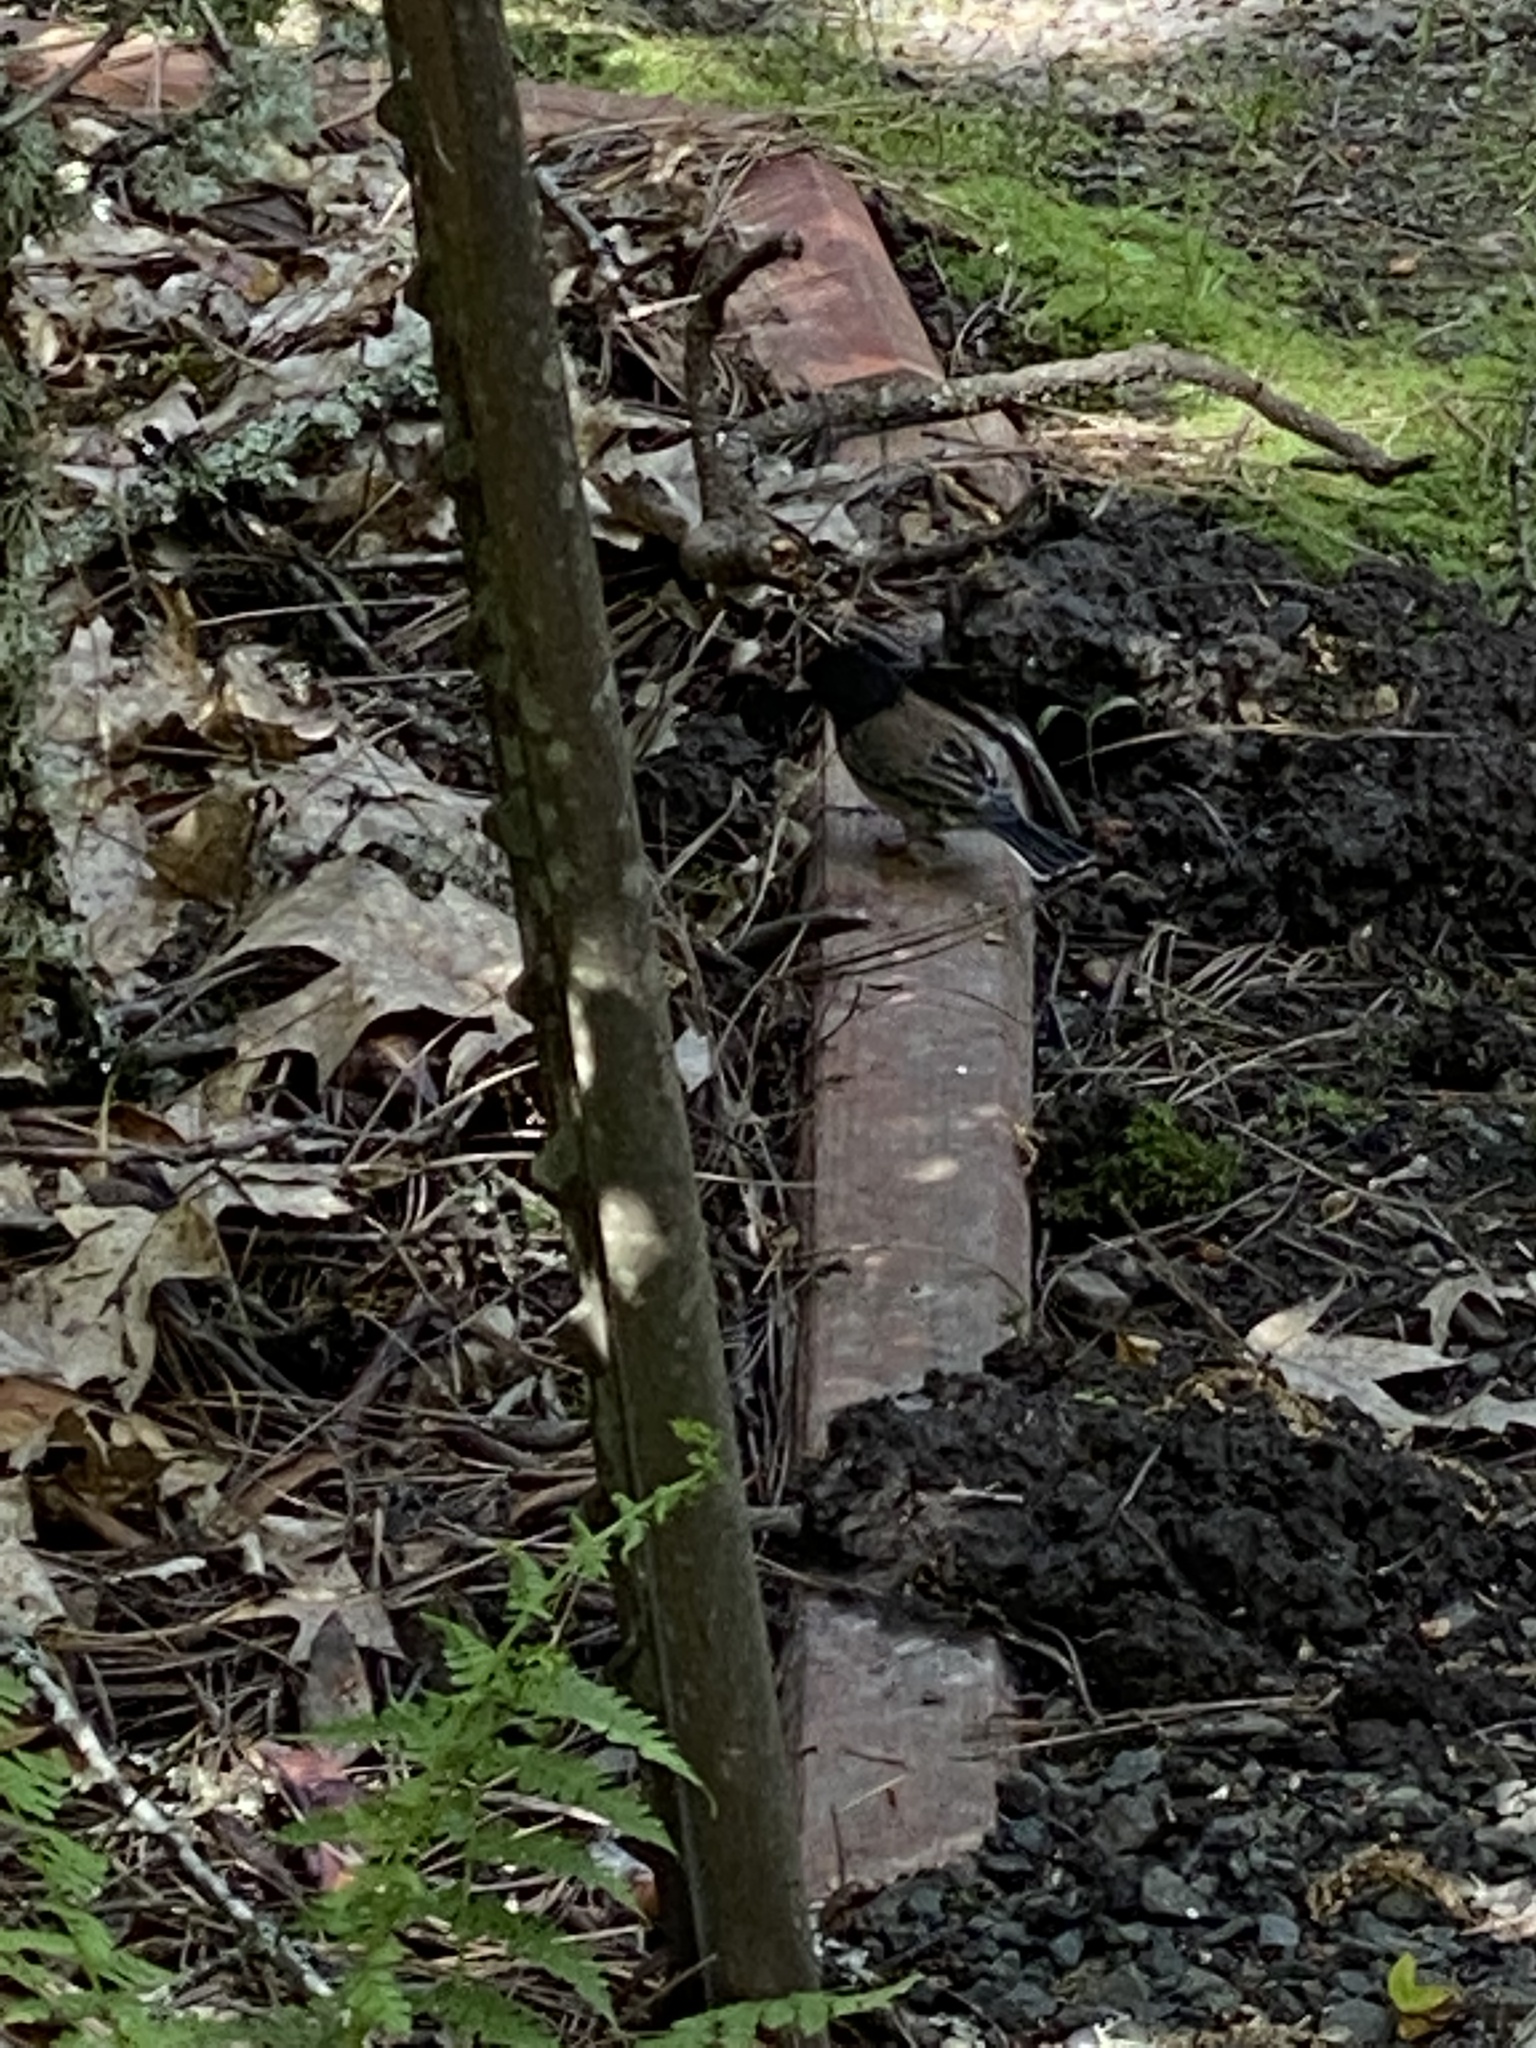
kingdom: Animalia
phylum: Chordata
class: Aves
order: Passeriformes
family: Passerellidae
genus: Junco
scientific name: Junco hyemalis
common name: Dark-eyed junco
